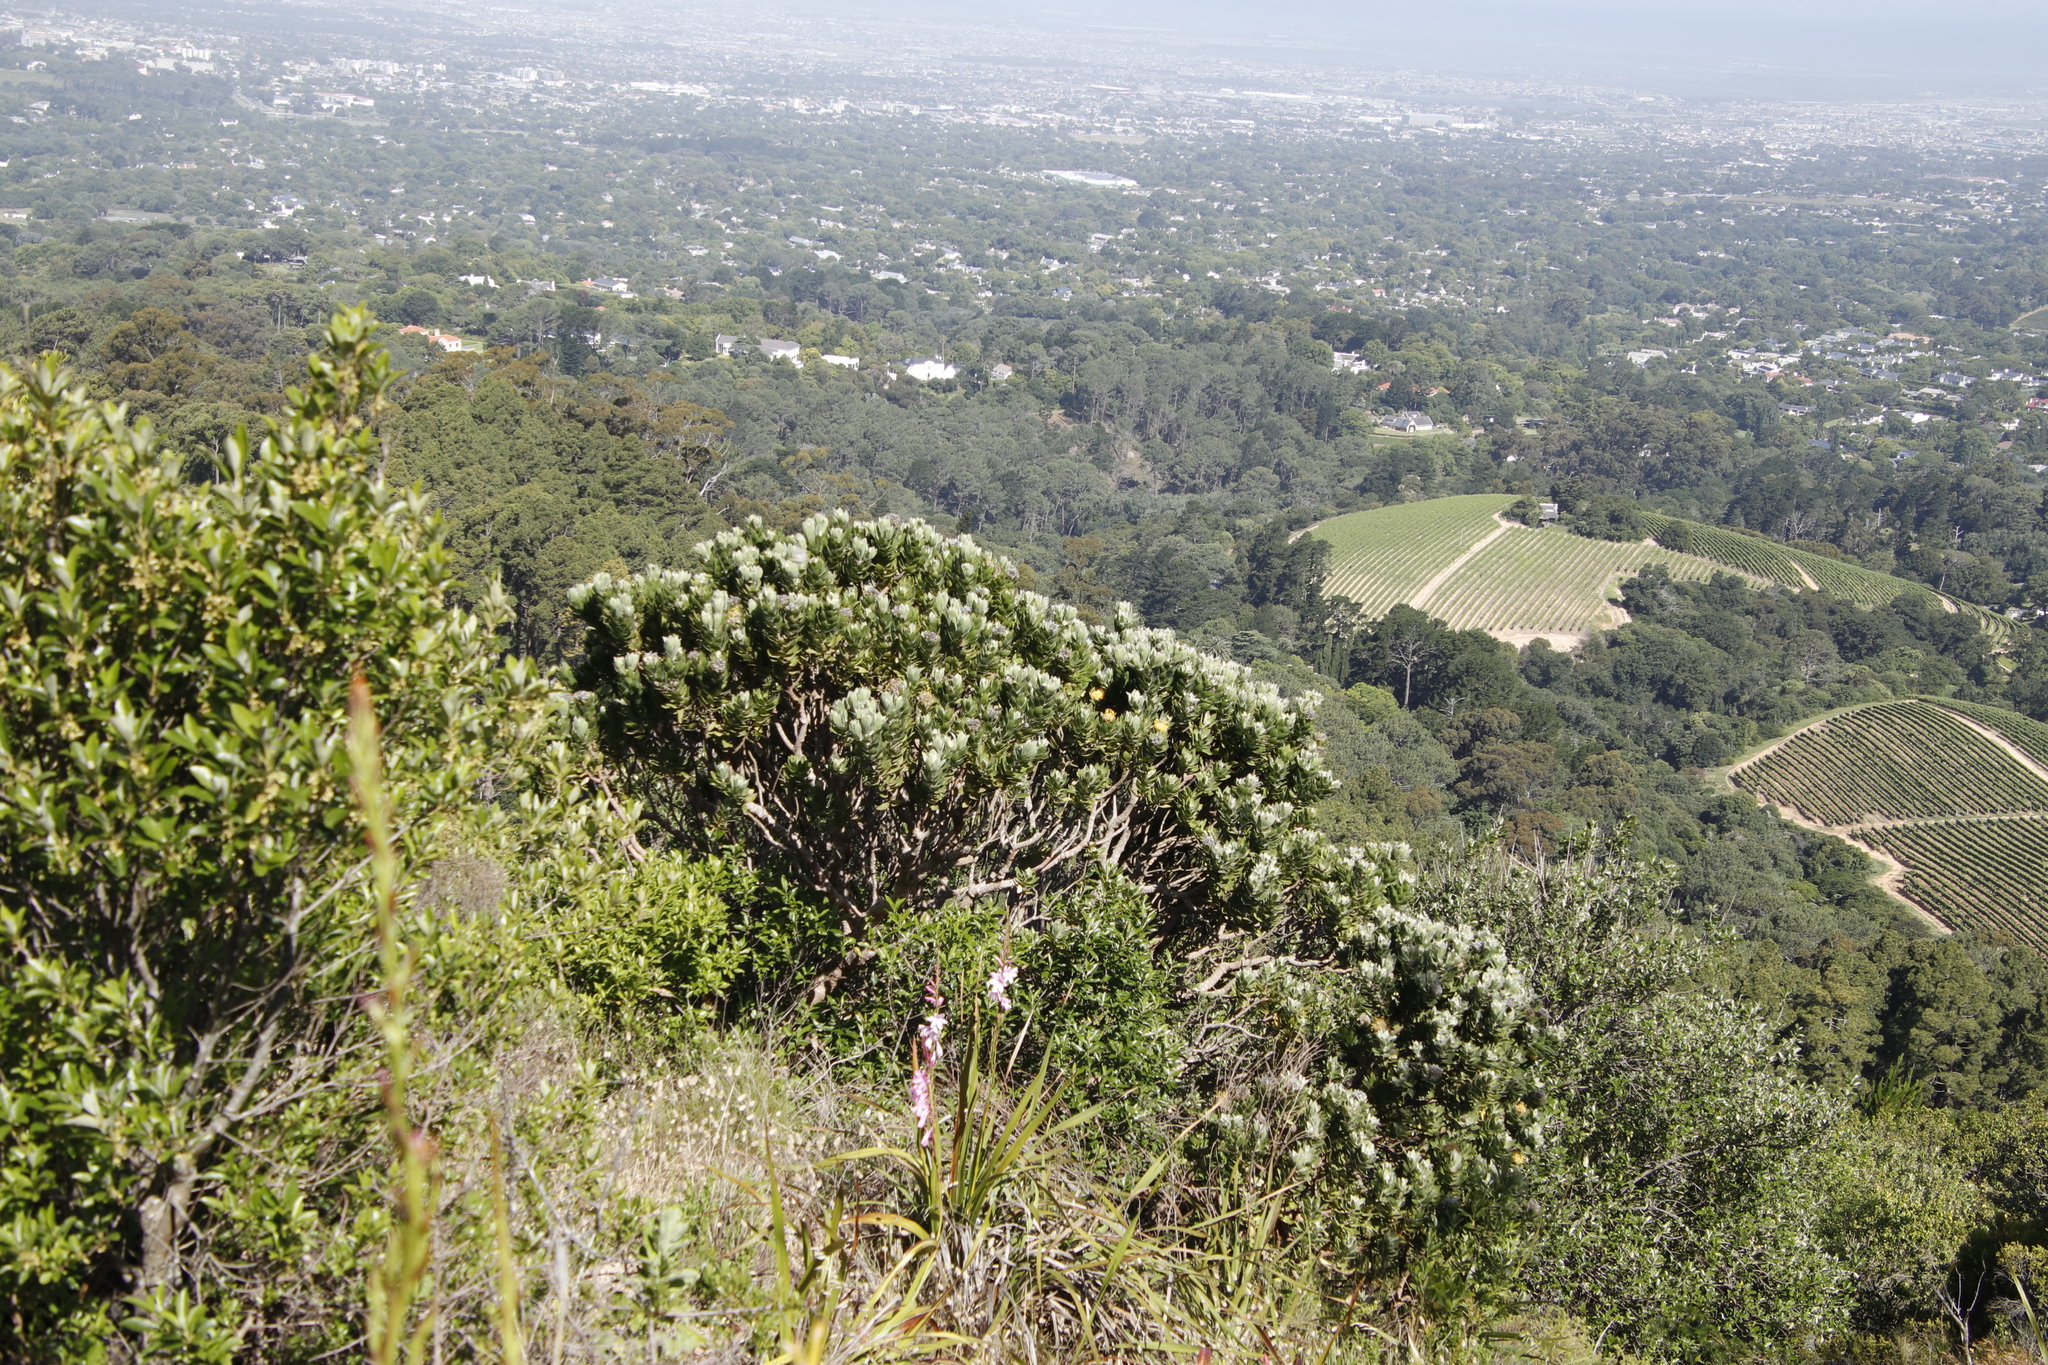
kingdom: Plantae
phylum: Tracheophyta
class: Magnoliopsida
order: Proteales
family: Proteaceae
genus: Leucospermum
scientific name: Leucospermum conocarpodendron
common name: Tree pincushion
